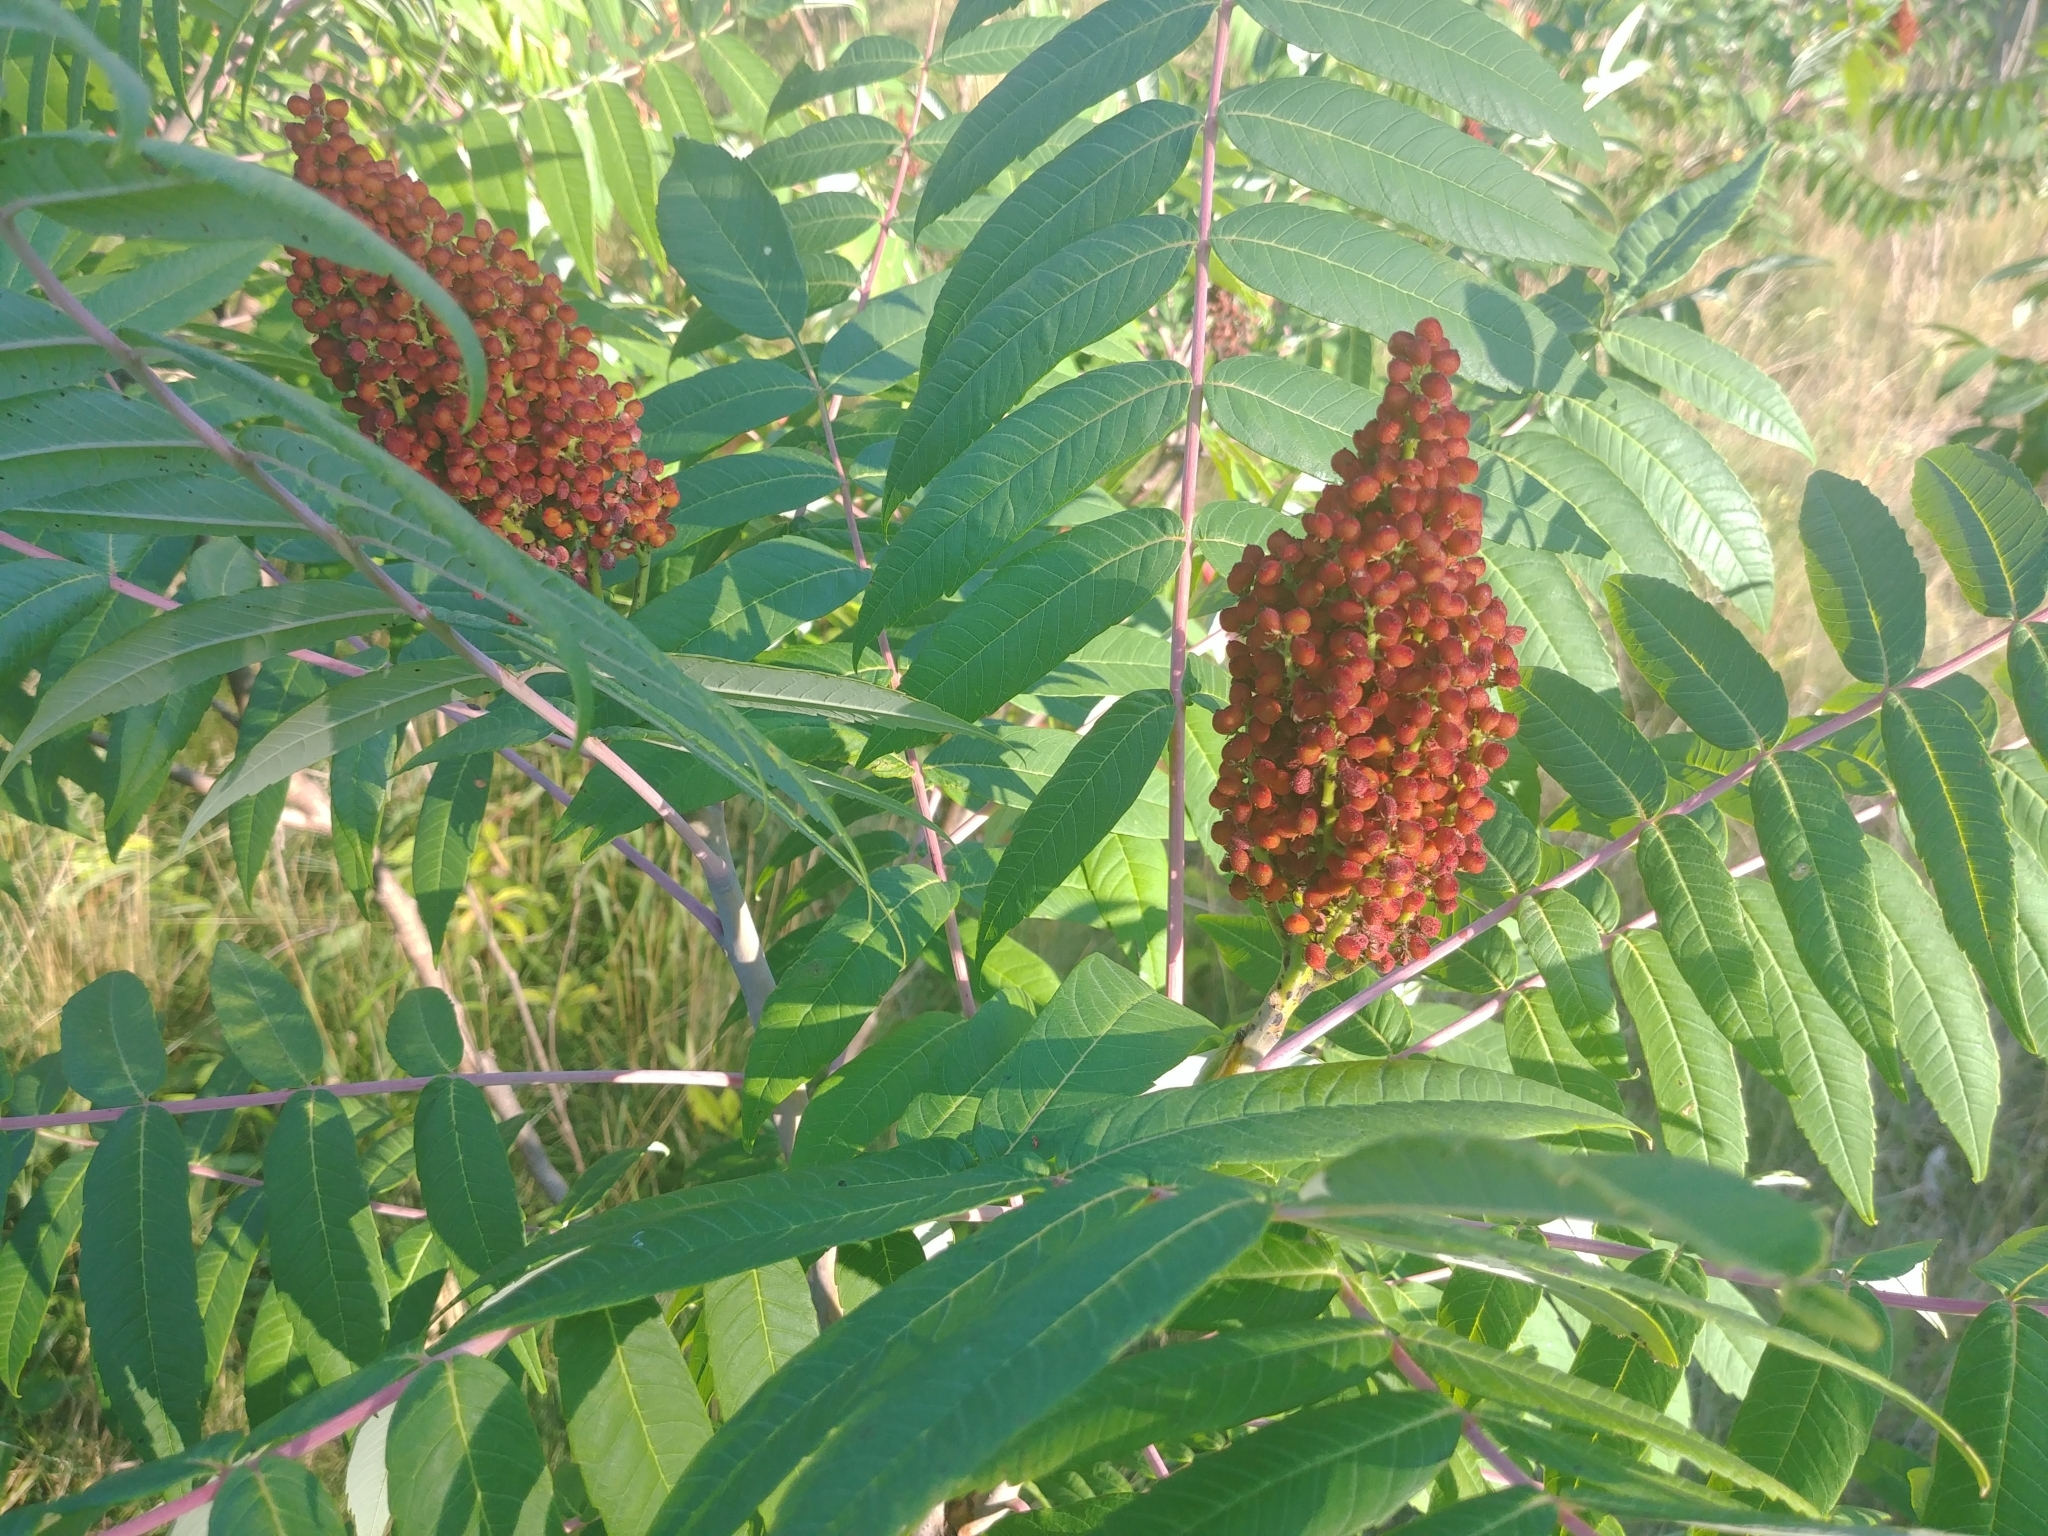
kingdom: Plantae
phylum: Tracheophyta
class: Magnoliopsida
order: Sapindales
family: Anacardiaceae
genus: Rhus
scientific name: Rhus glabra
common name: Scarlet sumac
